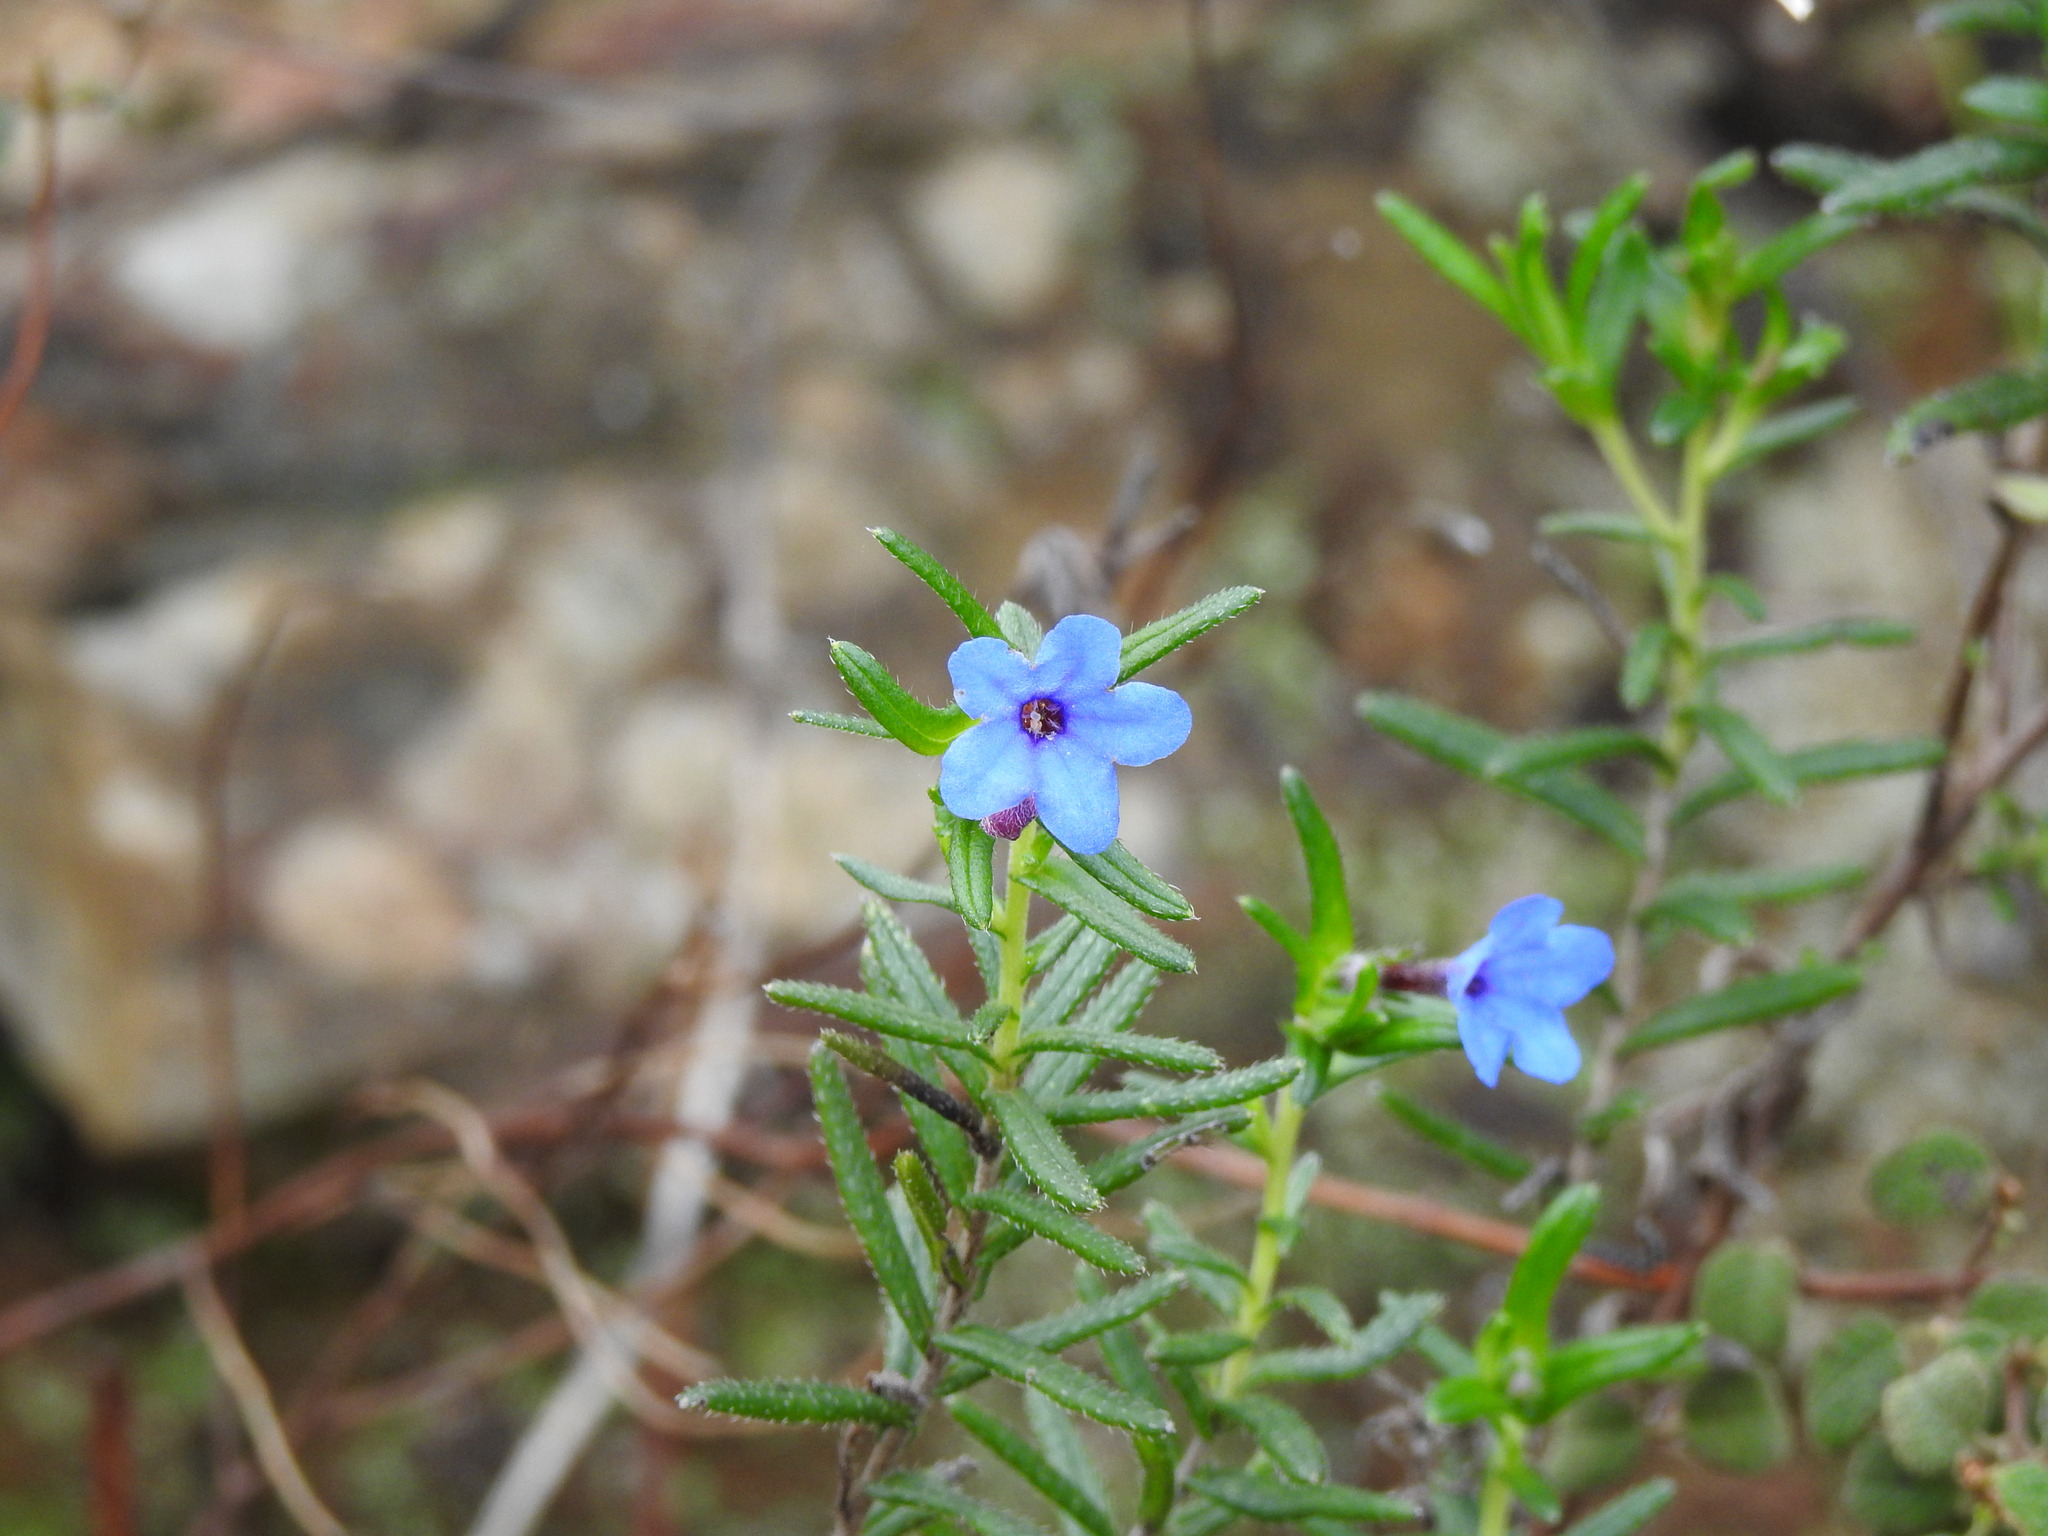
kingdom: Plantae
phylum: Tracheophyta
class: Magnoliopsida
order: Boraginales
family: Boraginaceae
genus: Glandora
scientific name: Glandora prostrata
